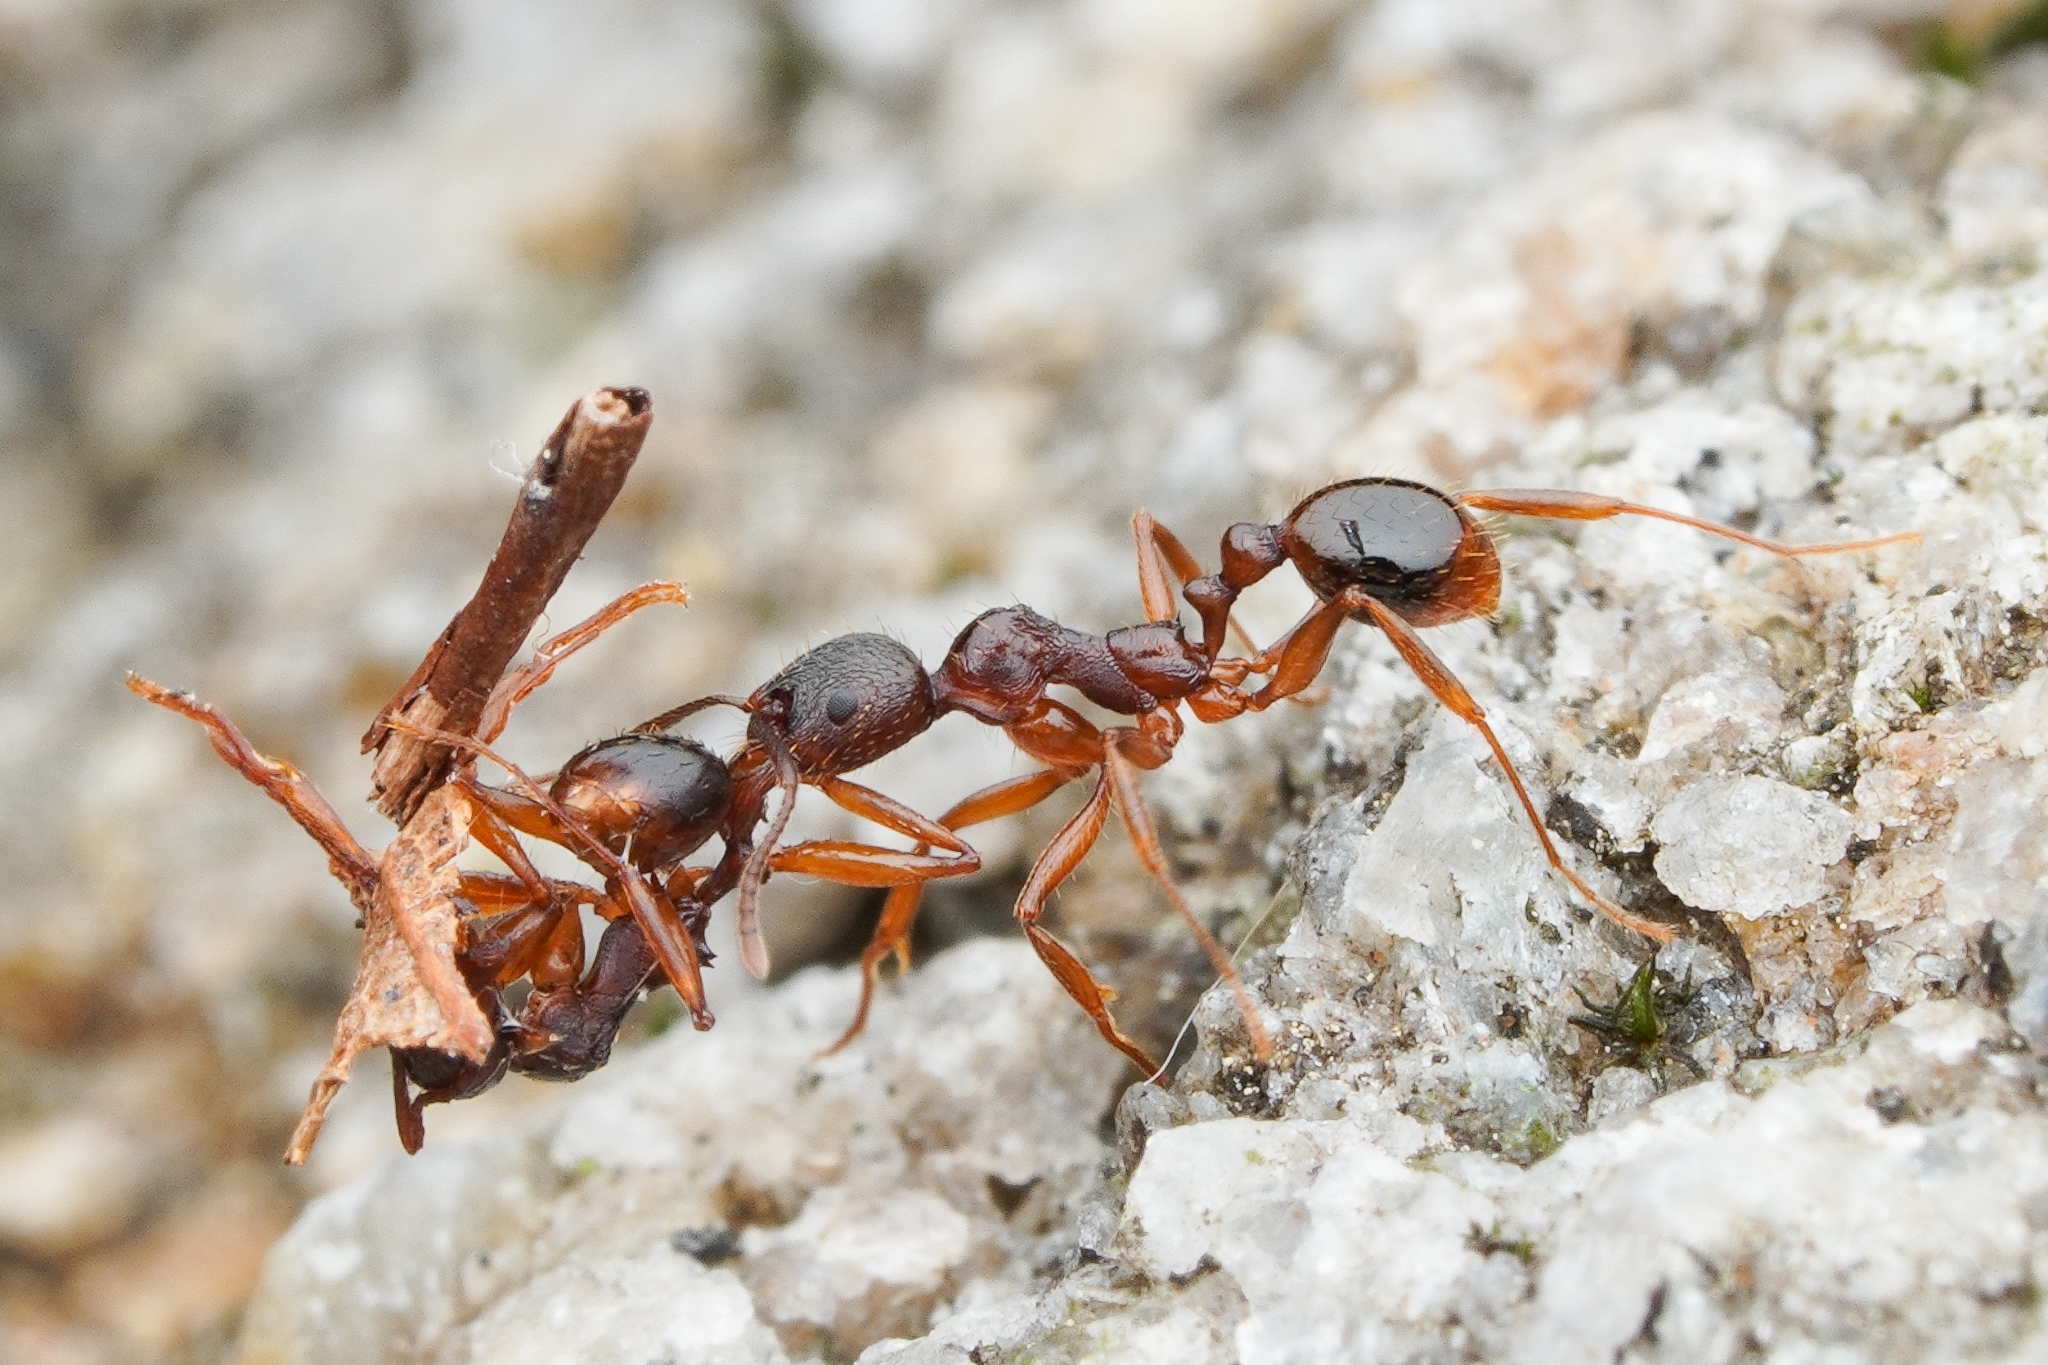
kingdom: Animalia
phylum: Arthropoda
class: Insecta
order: Hymenoptera
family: Formicidae
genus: Aphaenogaster
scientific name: Aphaenogaster japonica
